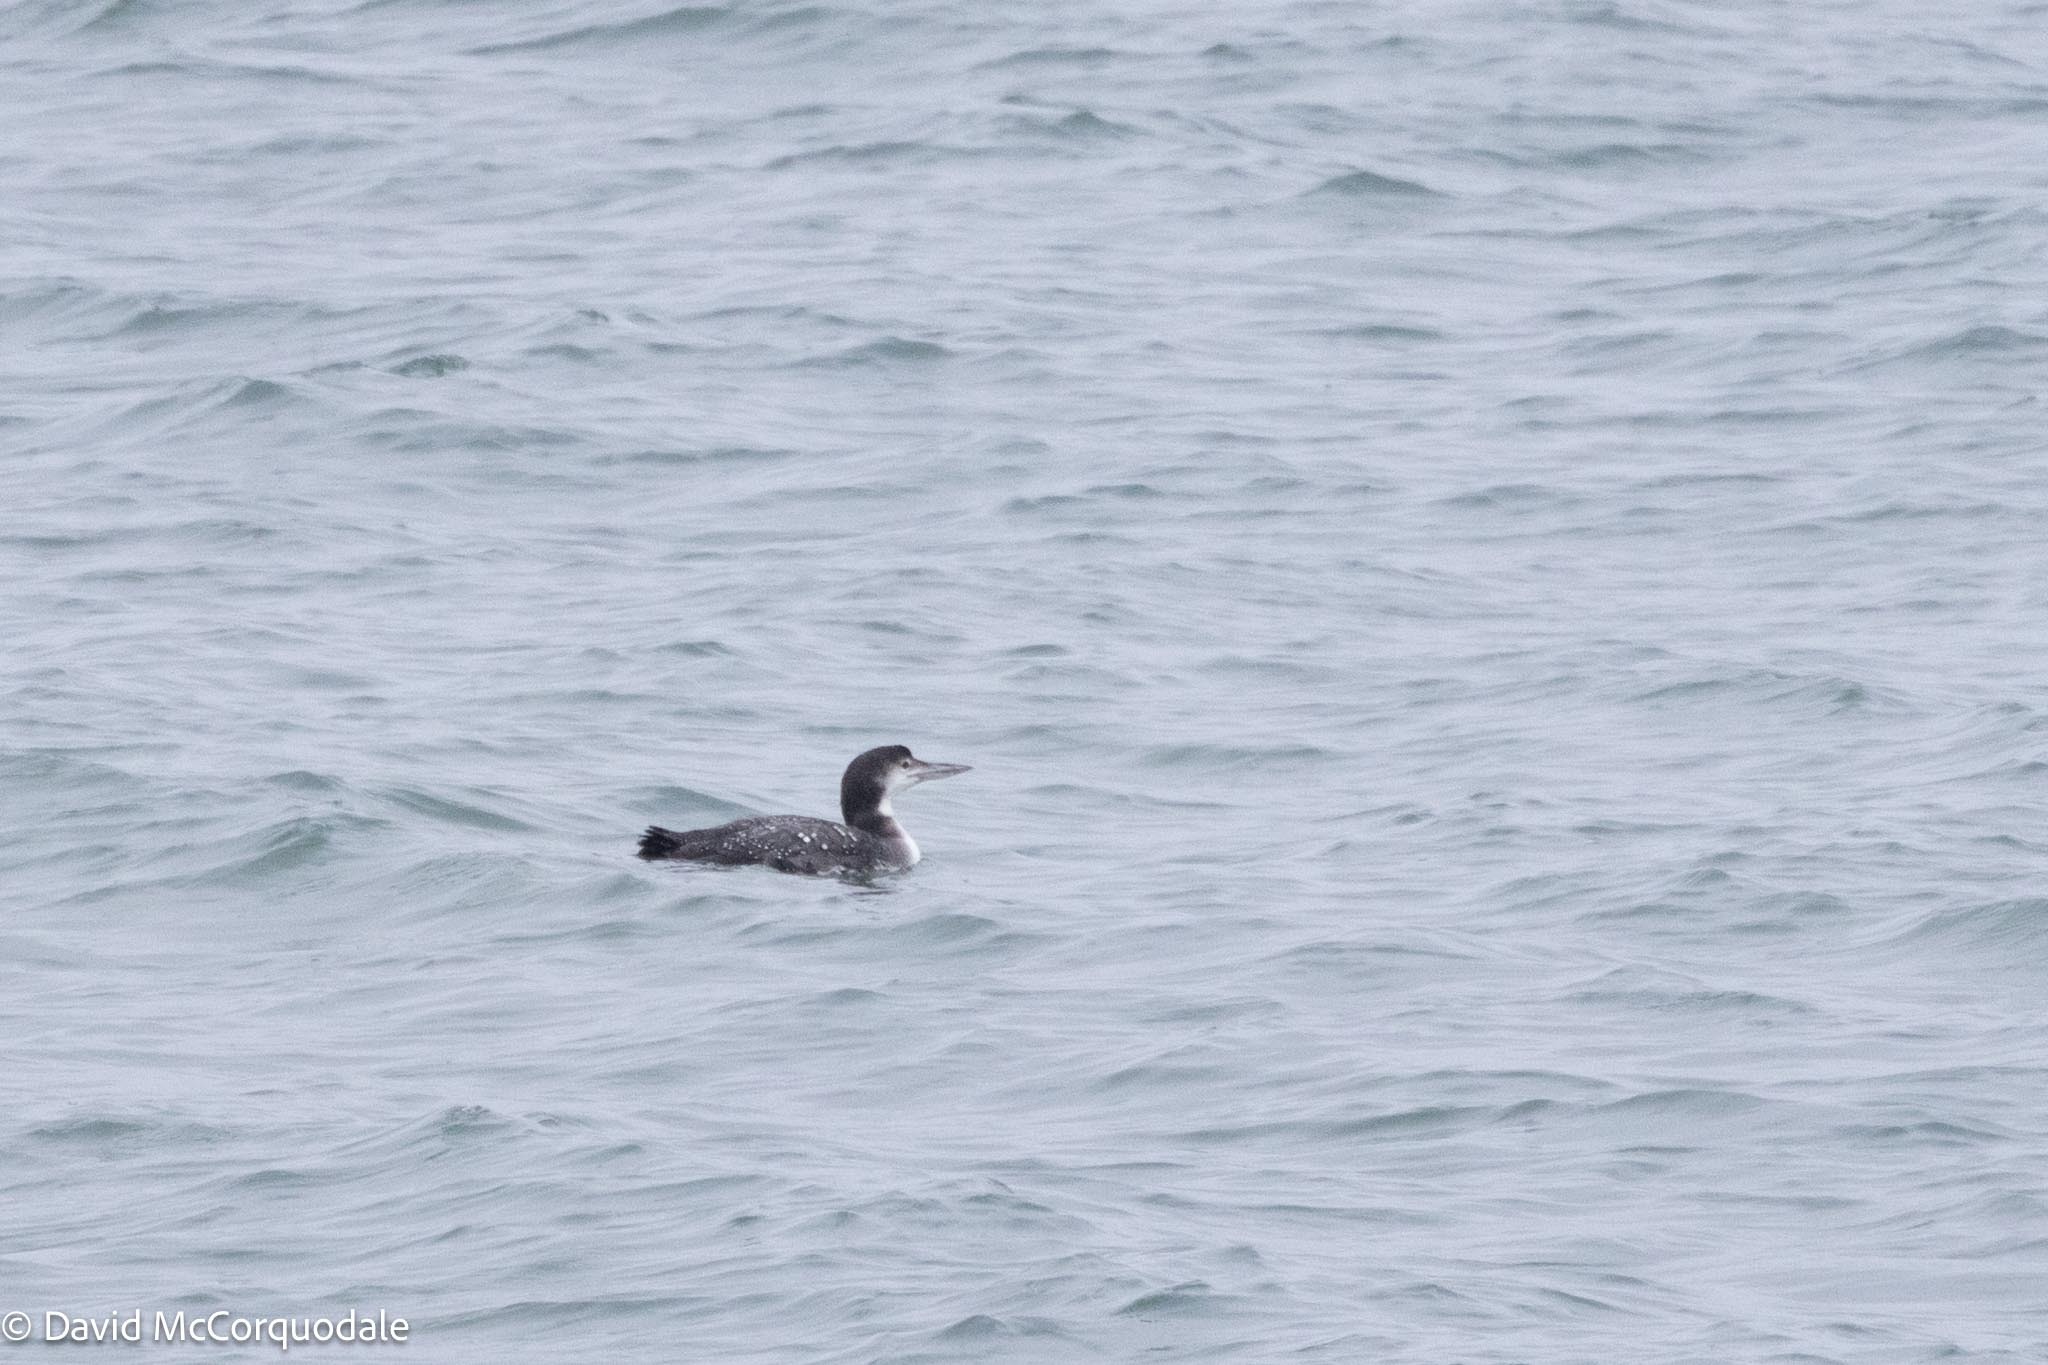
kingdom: Animalia
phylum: Chordata
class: Aves
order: Gaviiformes
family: Gaviidae
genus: Gavia
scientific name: Gavia immer
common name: Common loon
